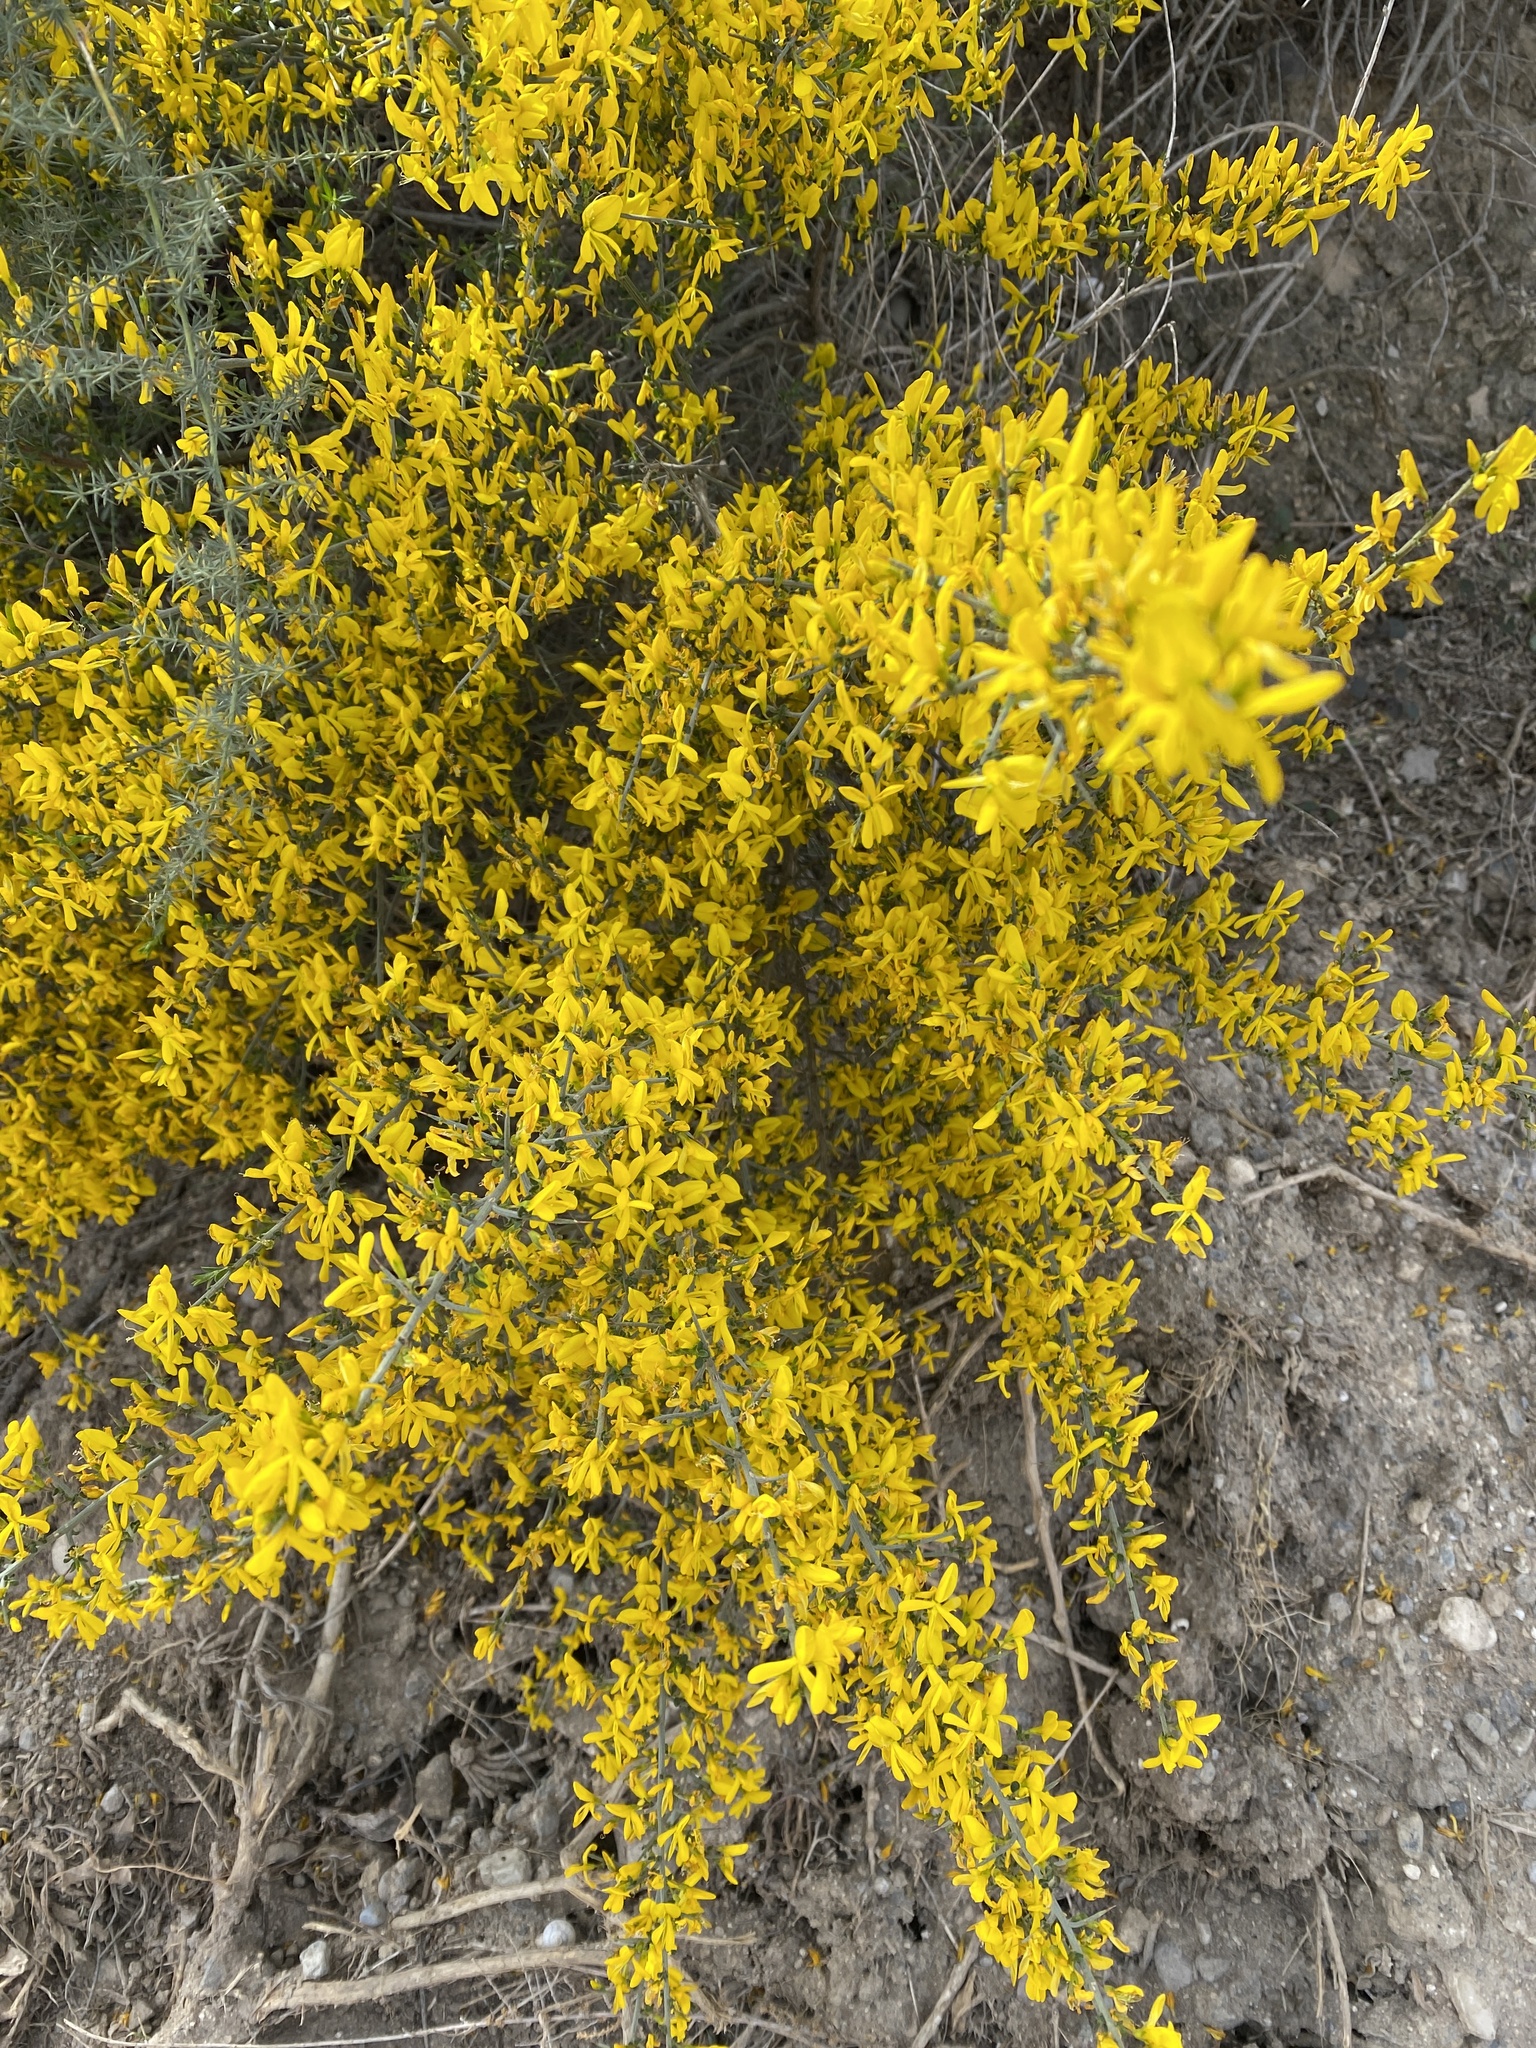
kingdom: Plantae
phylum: Tracheophyta
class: Magnoliopsida
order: Fabales
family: Fabaceae
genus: Genista
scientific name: Genista scorpius
